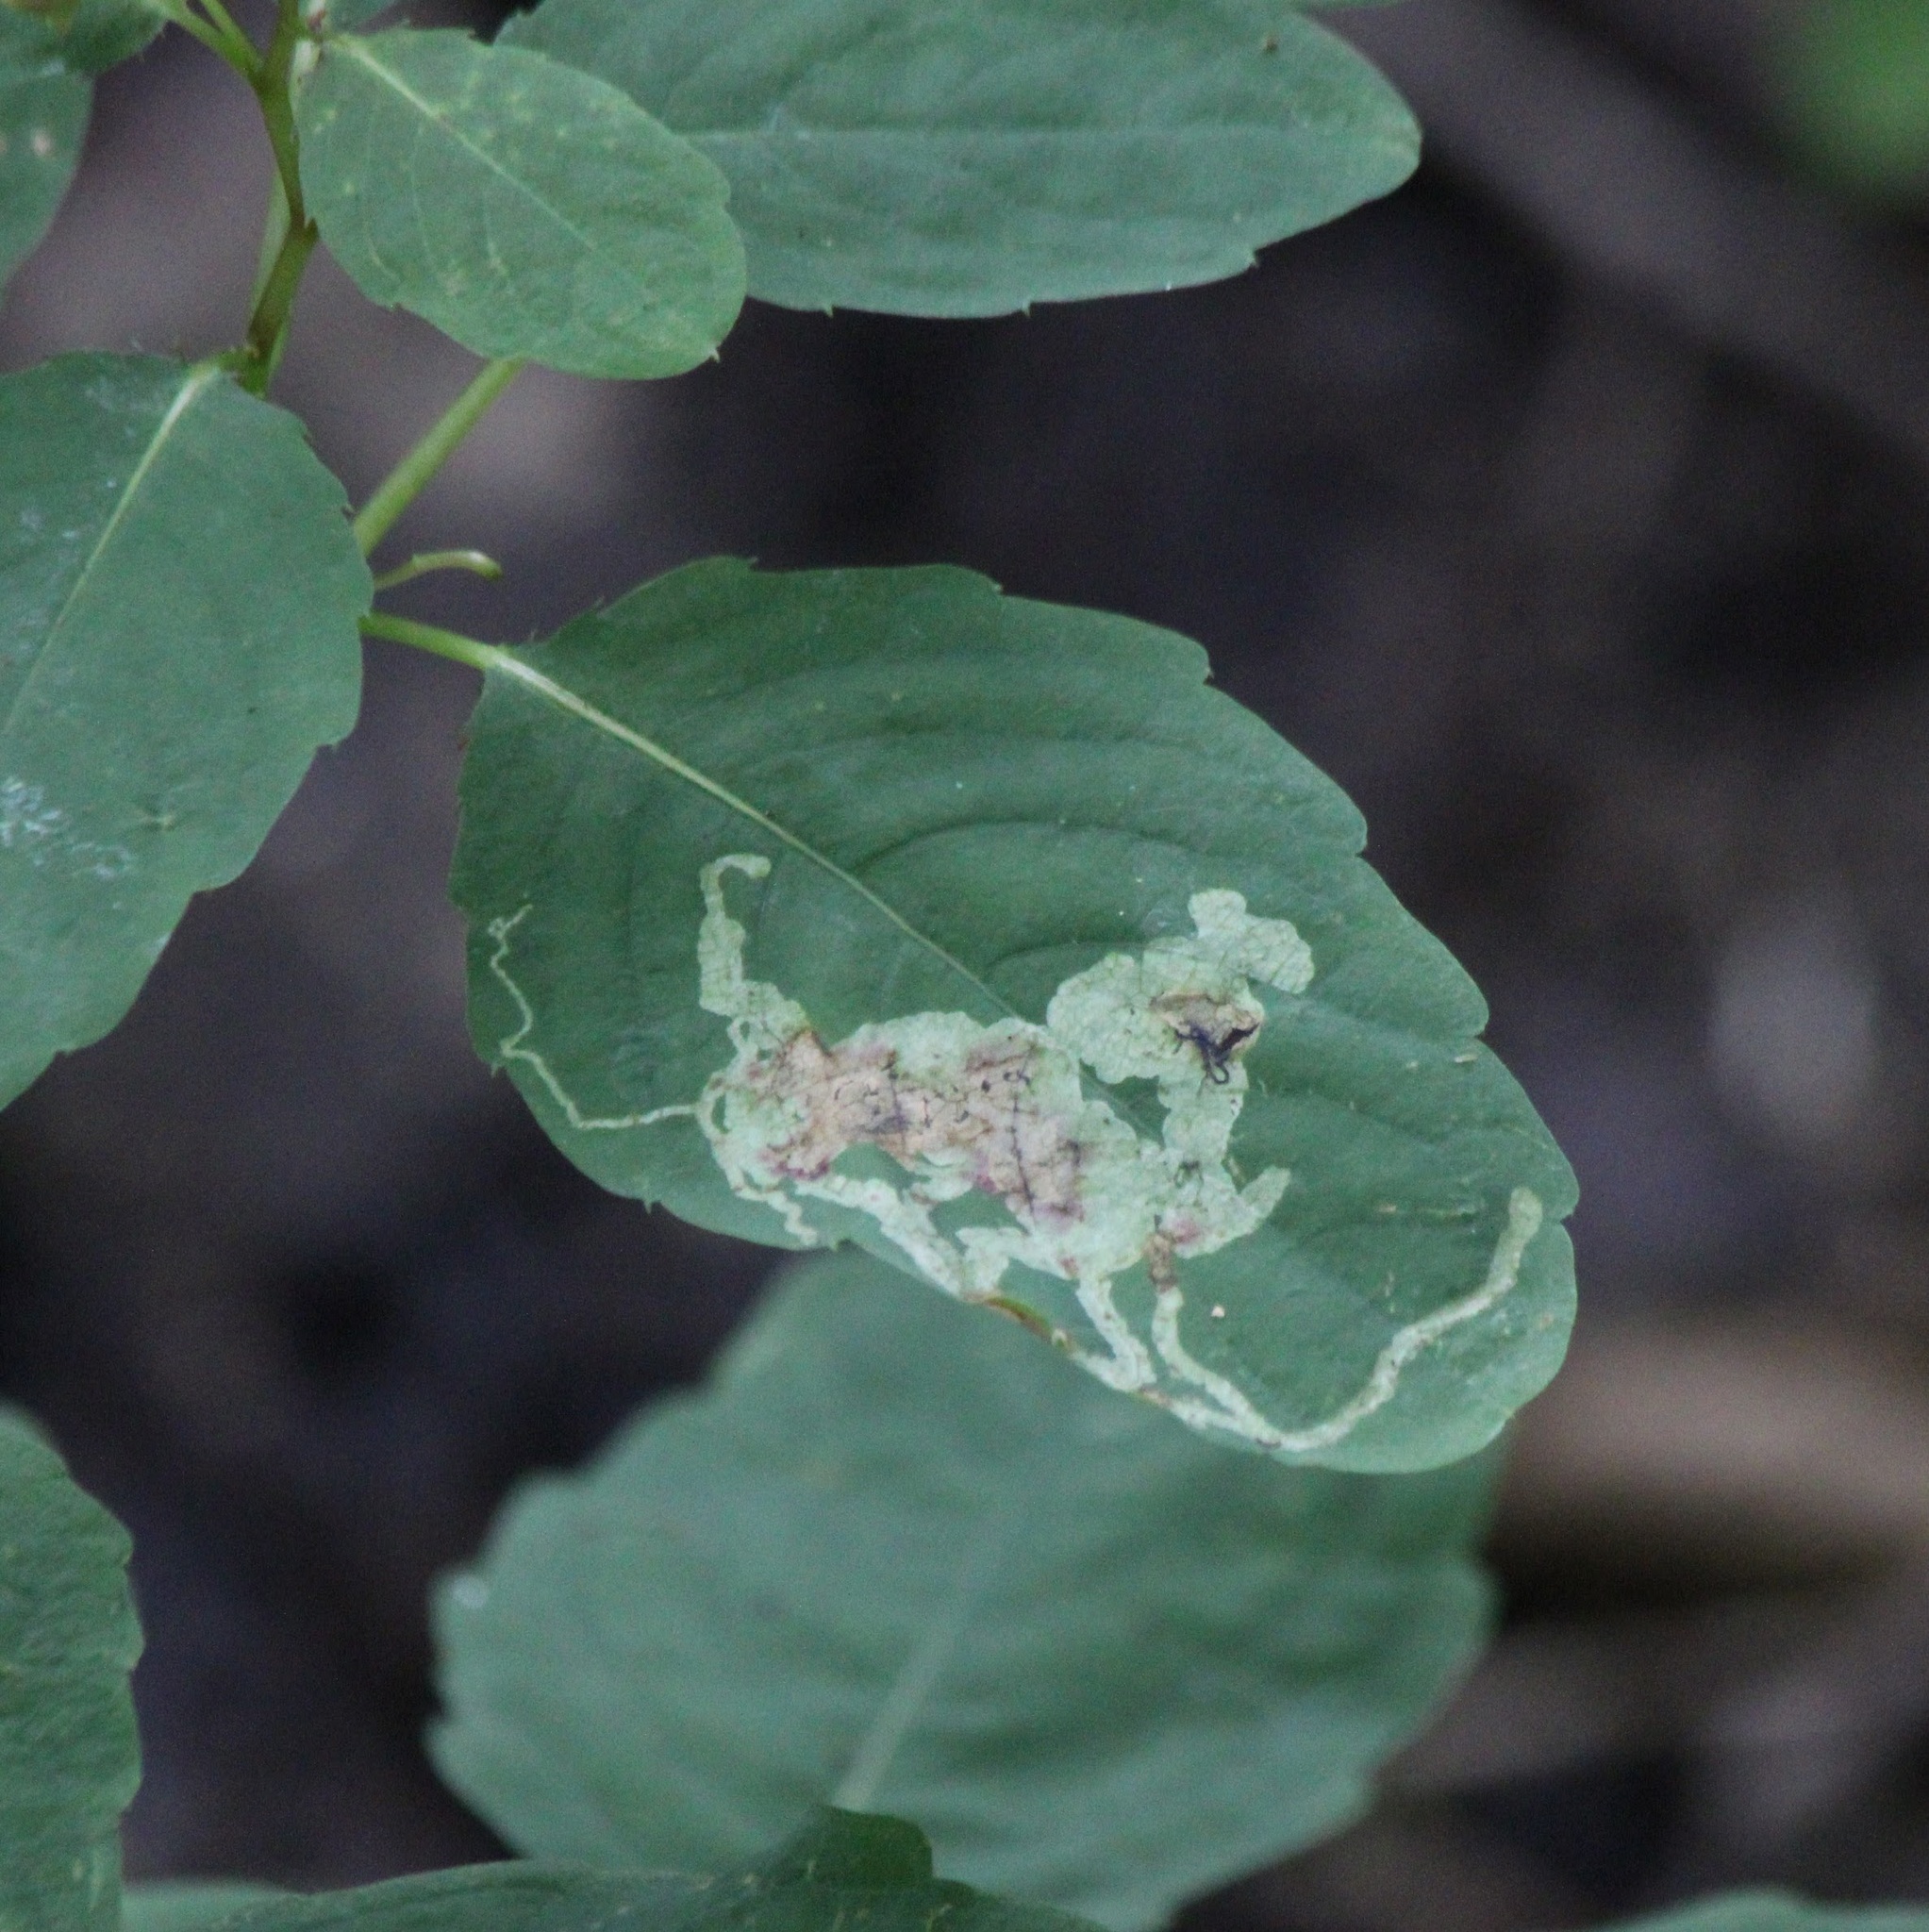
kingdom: Animalia
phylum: Arthropoda
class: Insecta
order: Diptera
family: Agromyzidae
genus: Phytoliriomyza
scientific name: Phytoliriomyza melampyga
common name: Jewelweed leaf-miner fly
